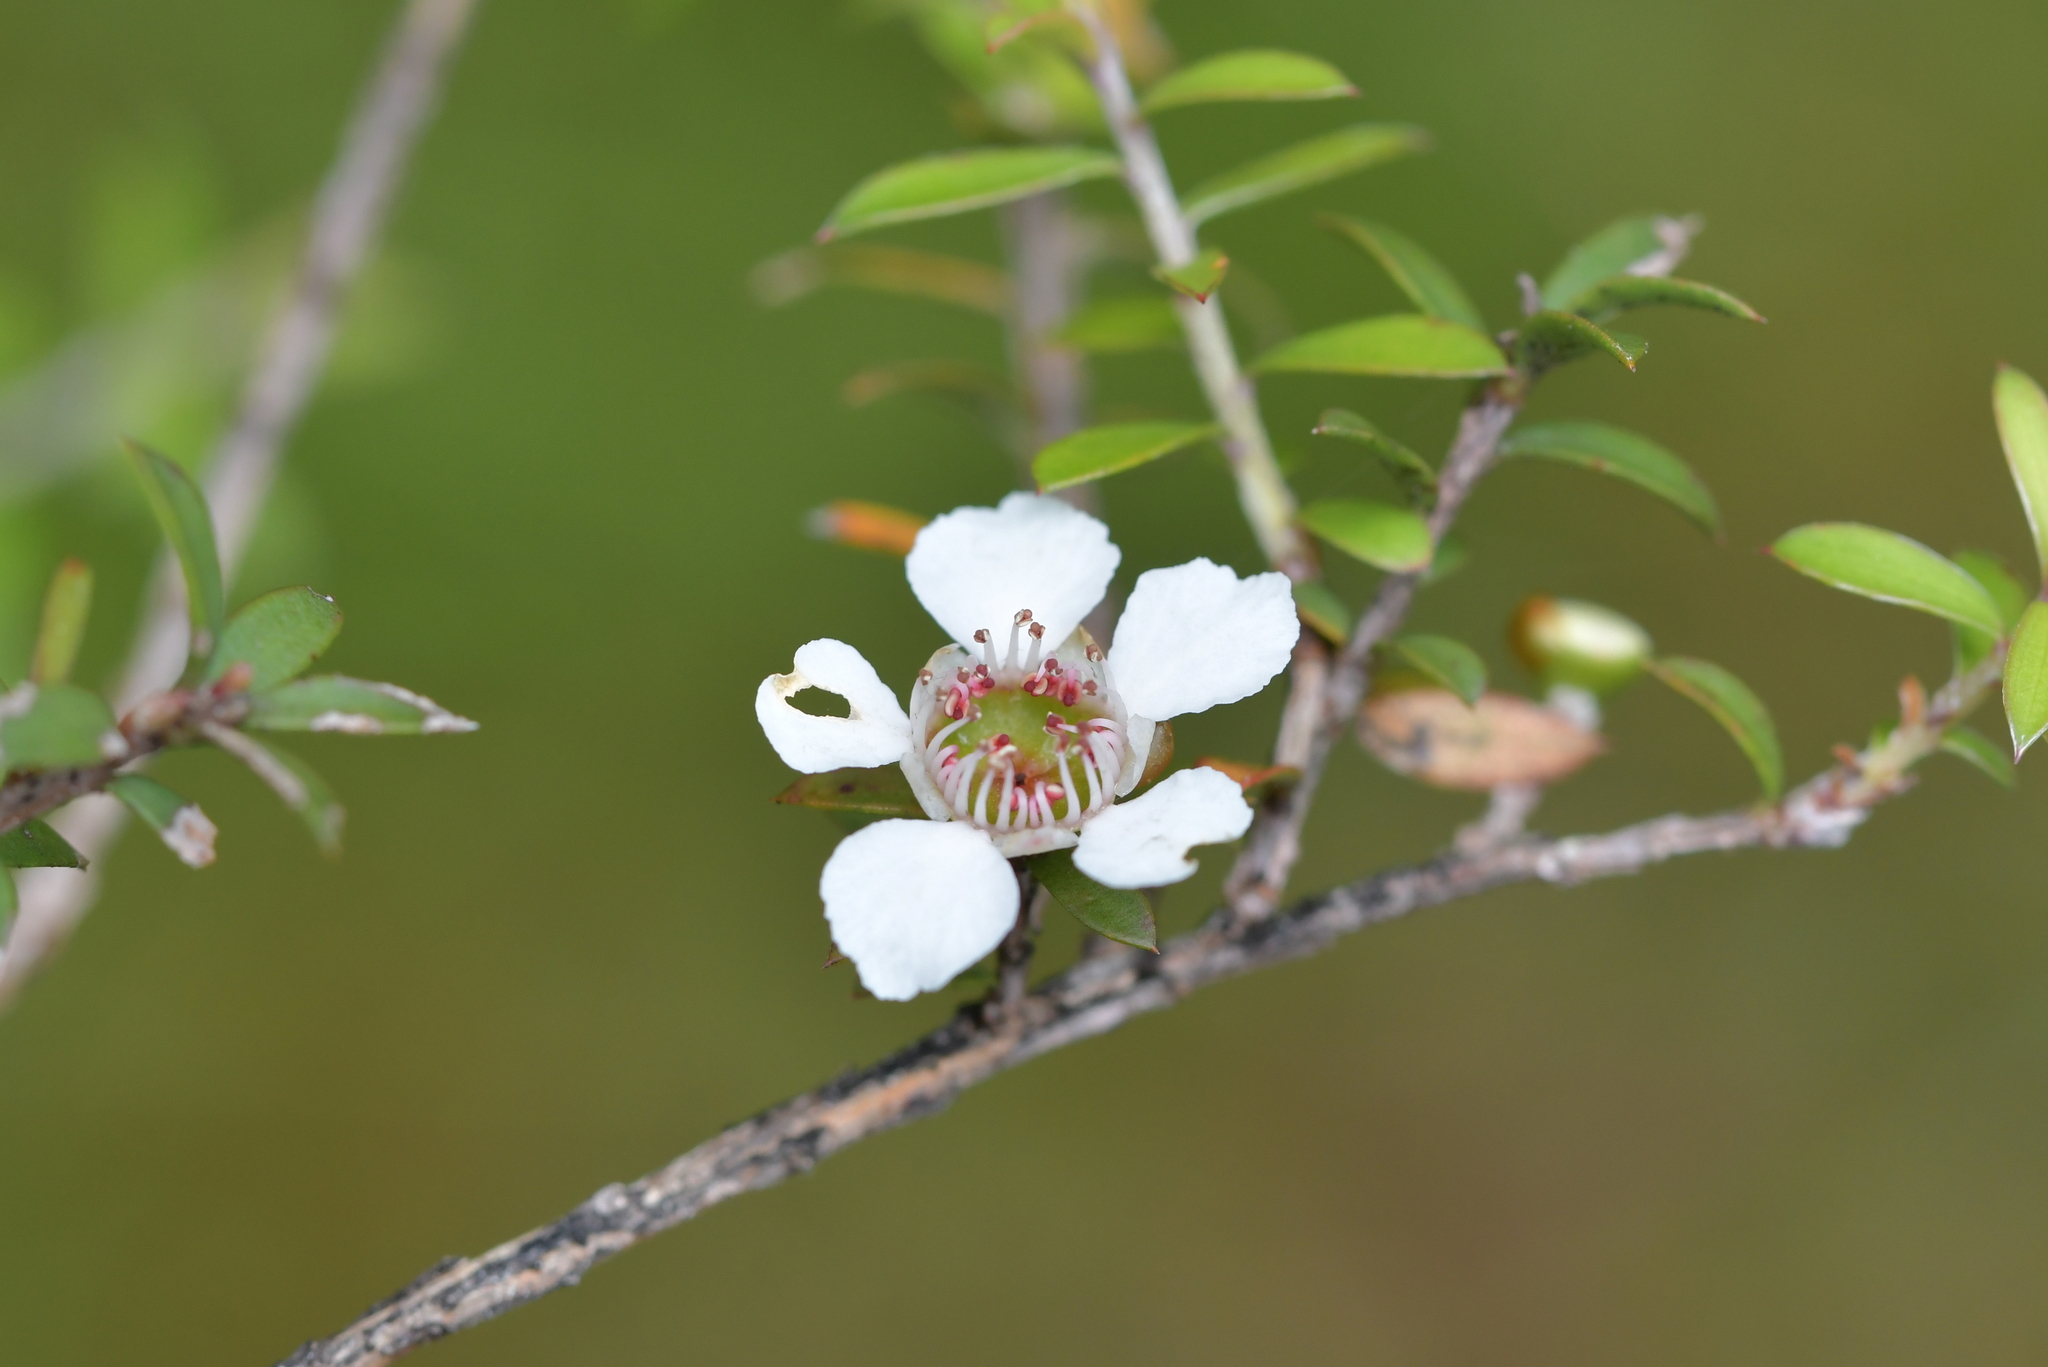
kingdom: Plantae
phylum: Tracheophyta
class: Magnoliopsida
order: Myrtales
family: Myrtaceae
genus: Leptospermum
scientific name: Leptospermum scoparium
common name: Broom tea-tree
